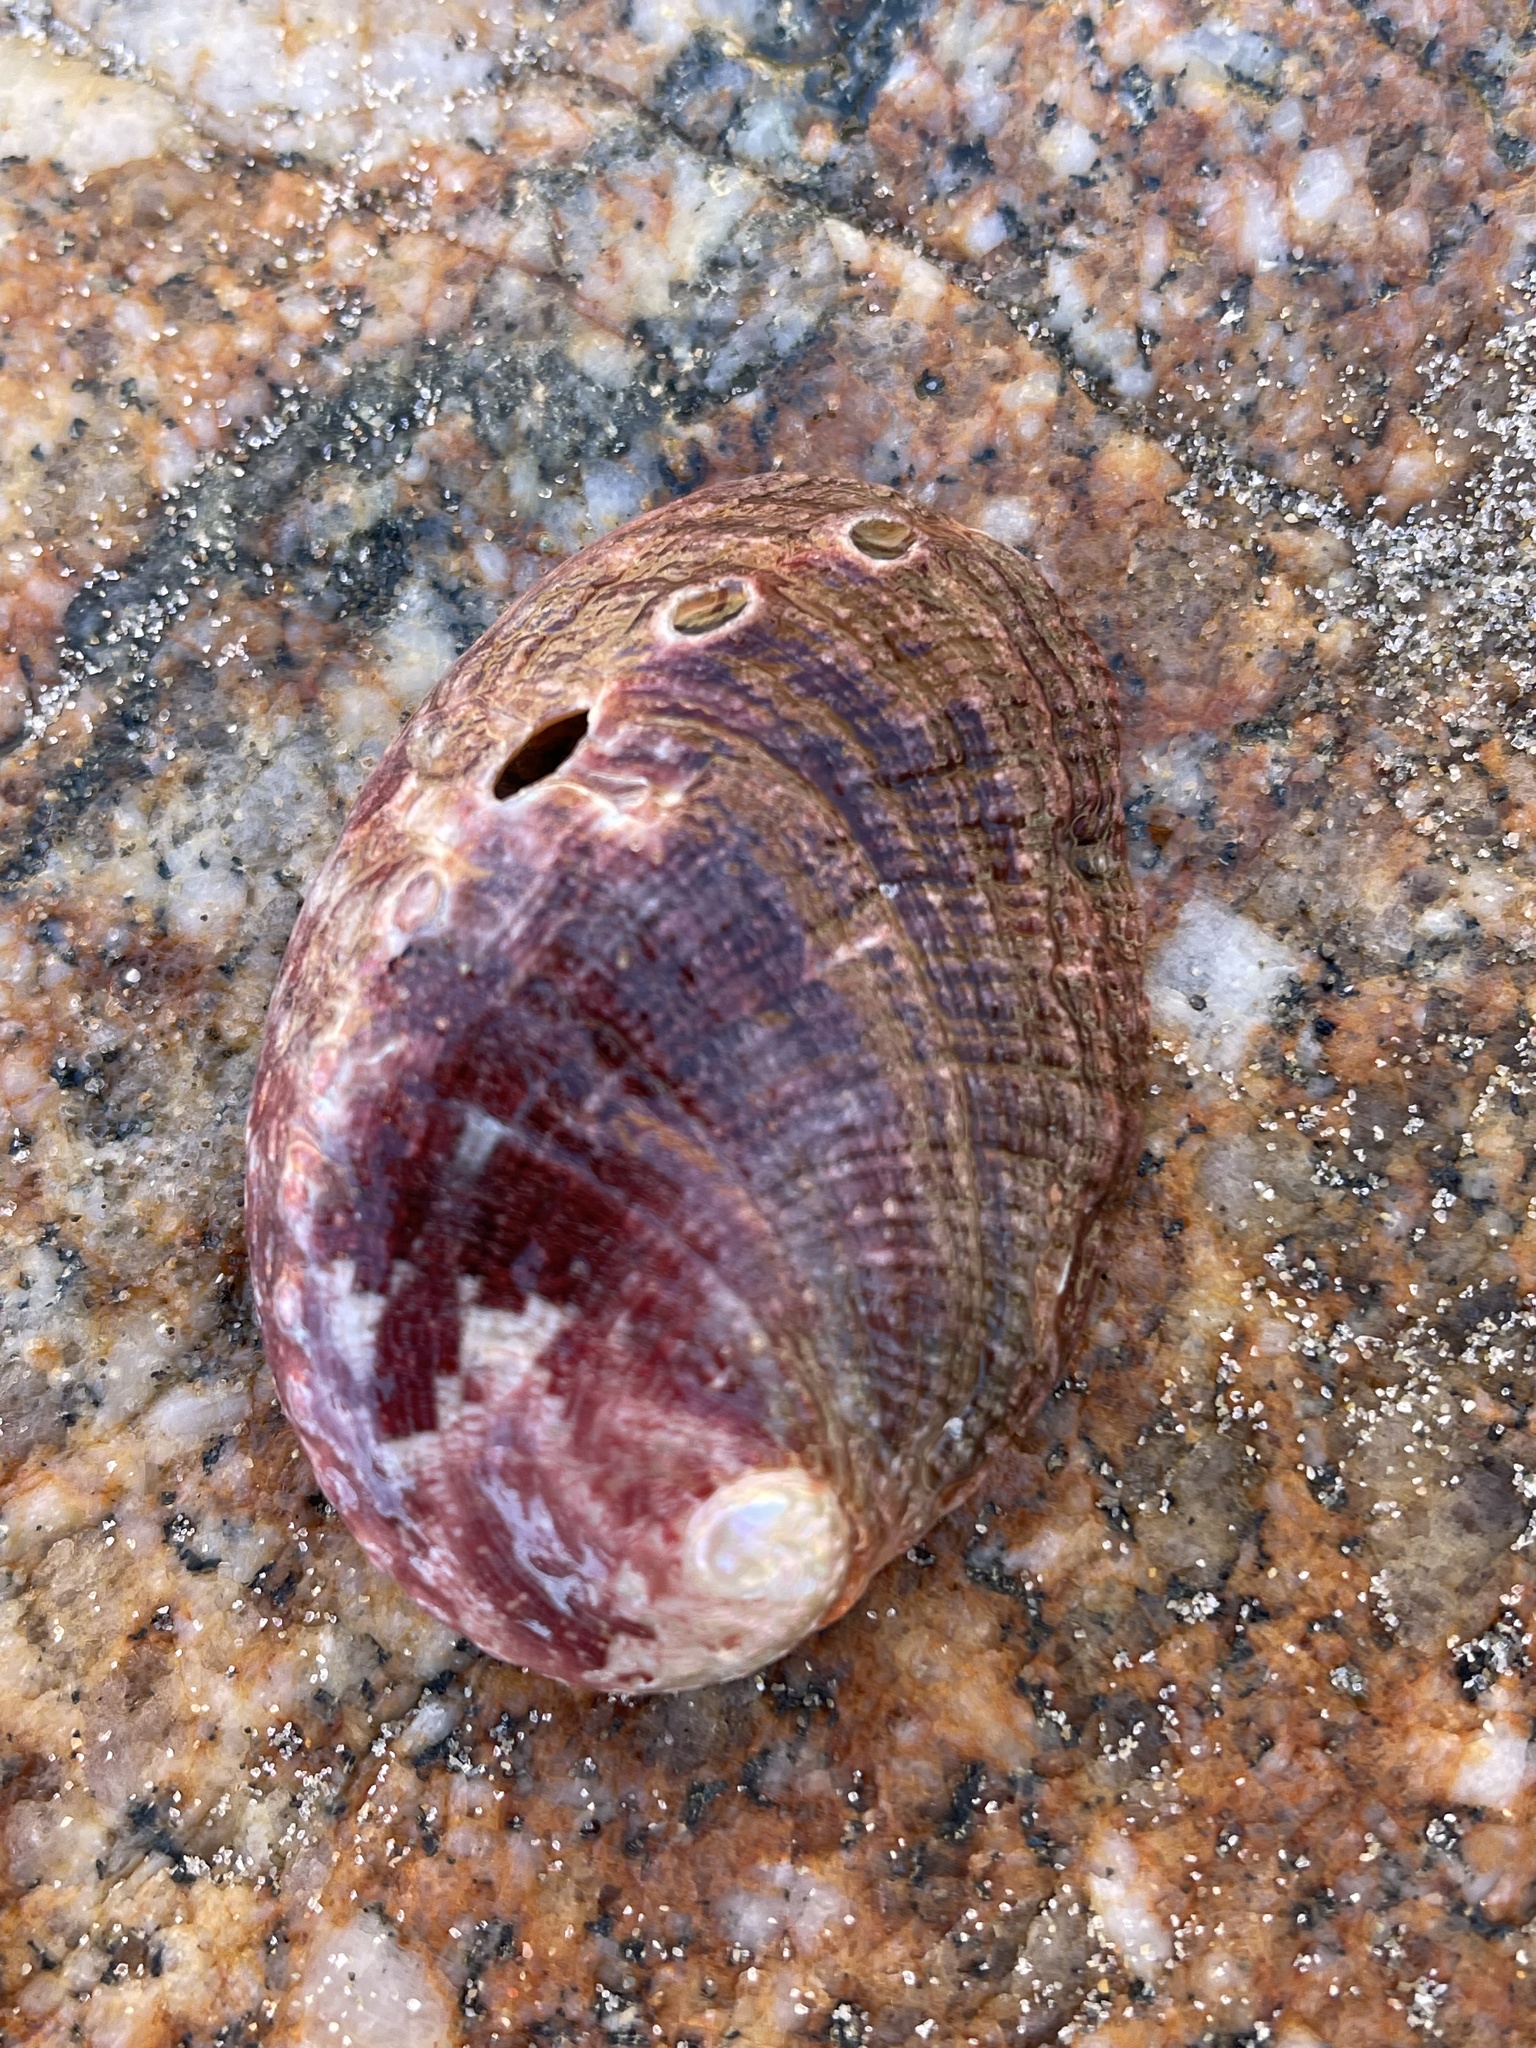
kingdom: Animalia
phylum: Mollusca
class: Gastropoda
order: Lepetellida
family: Haliotidae
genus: Haliotis
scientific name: Haliotis rufescens
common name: Red abalone
